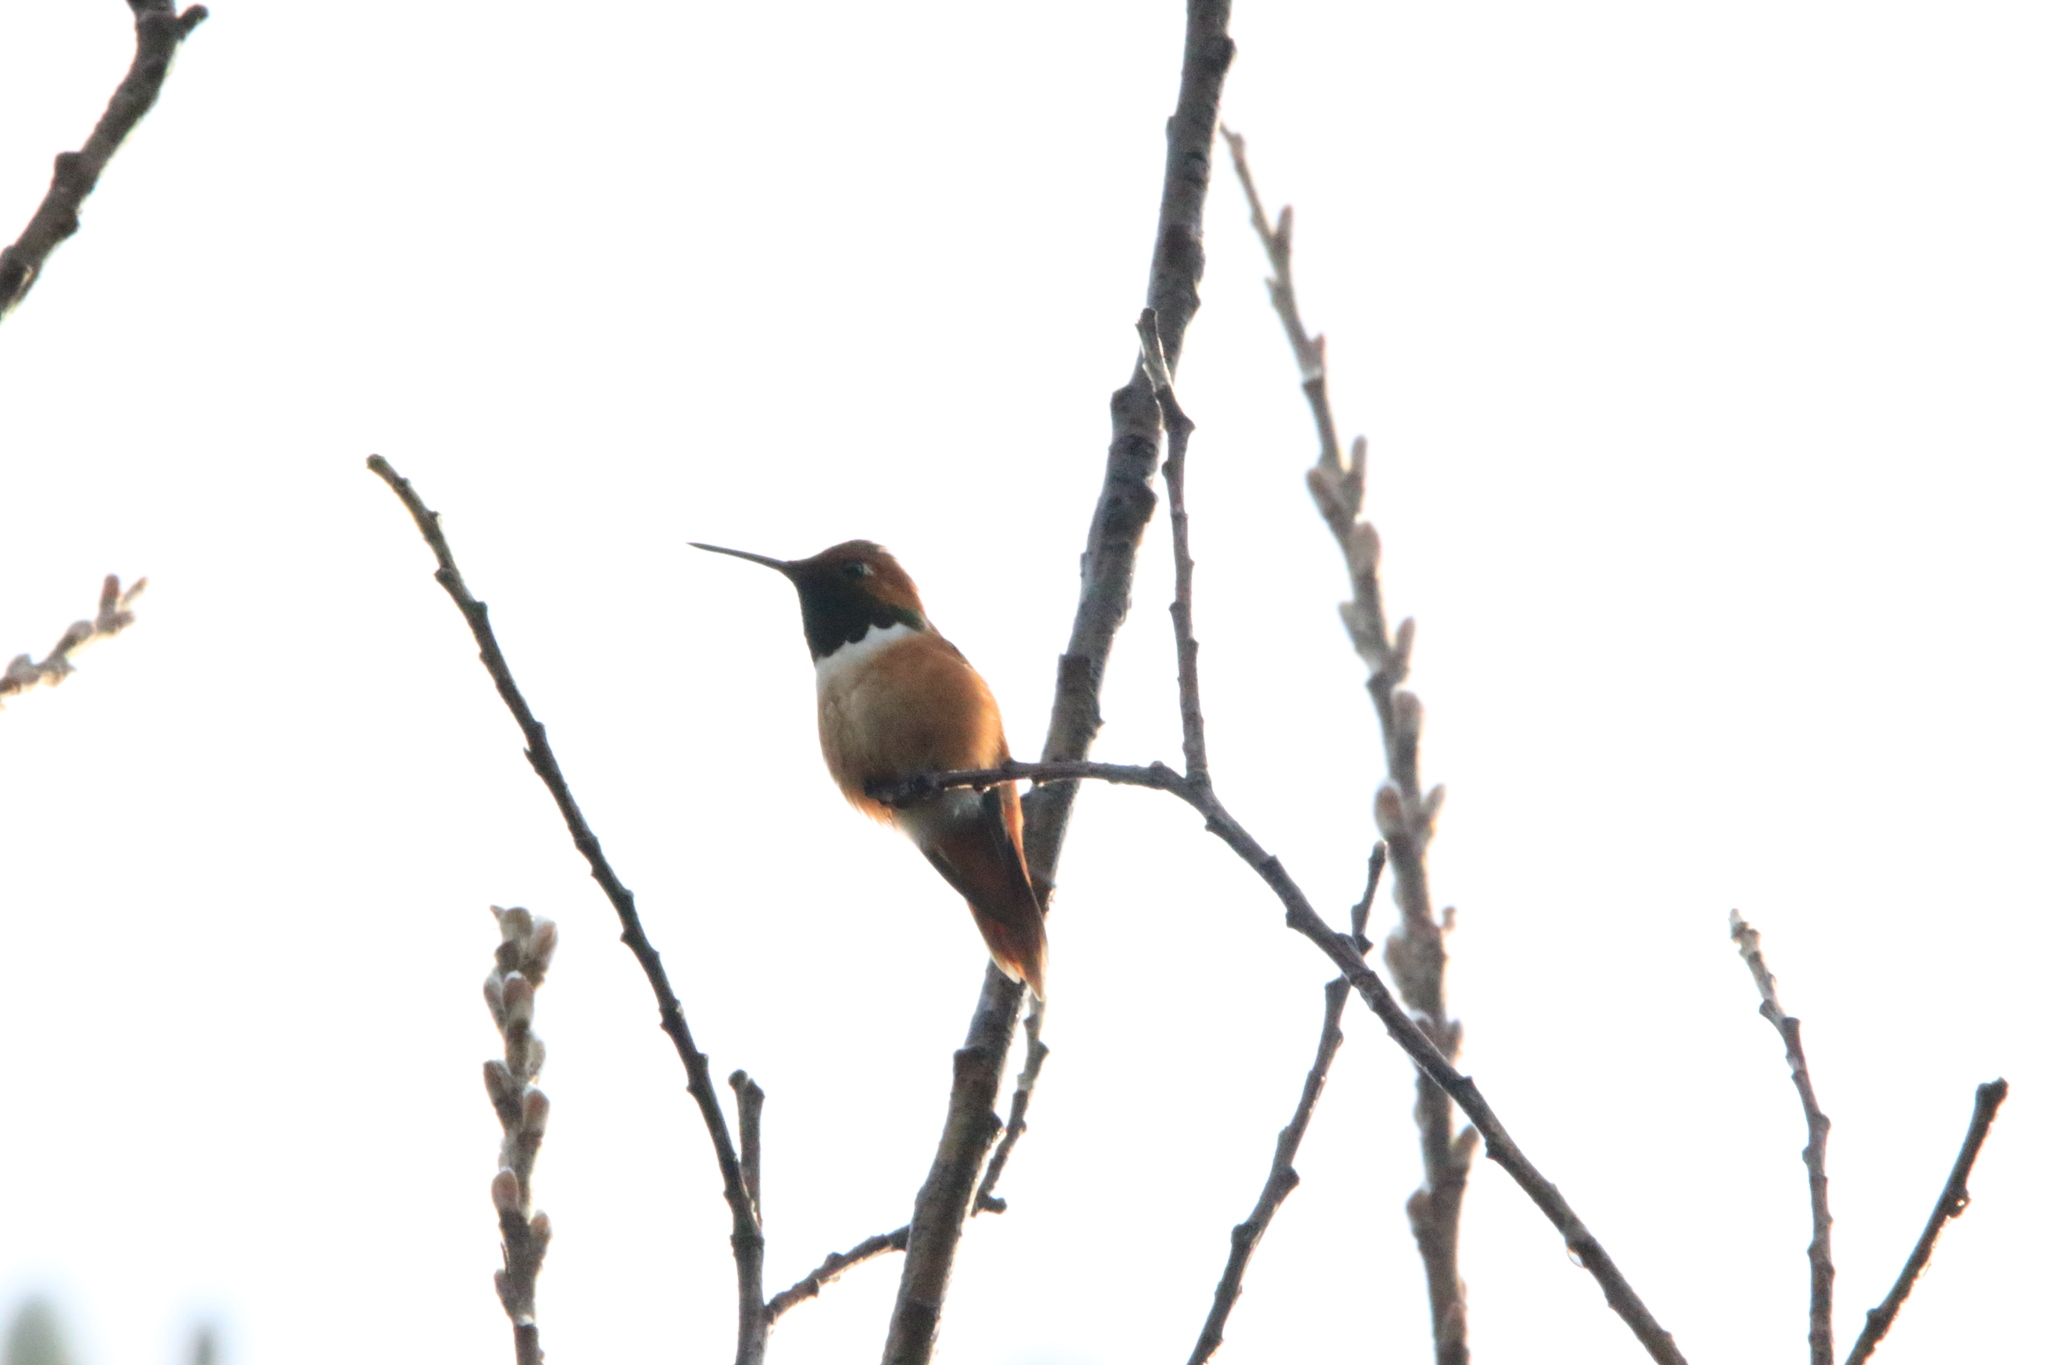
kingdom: Animalia
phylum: Chordata
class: Aves
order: Apodiformes
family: Trochilidae
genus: Selasphorus
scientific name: Selasphorus rufus
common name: Rufous hummingbird
